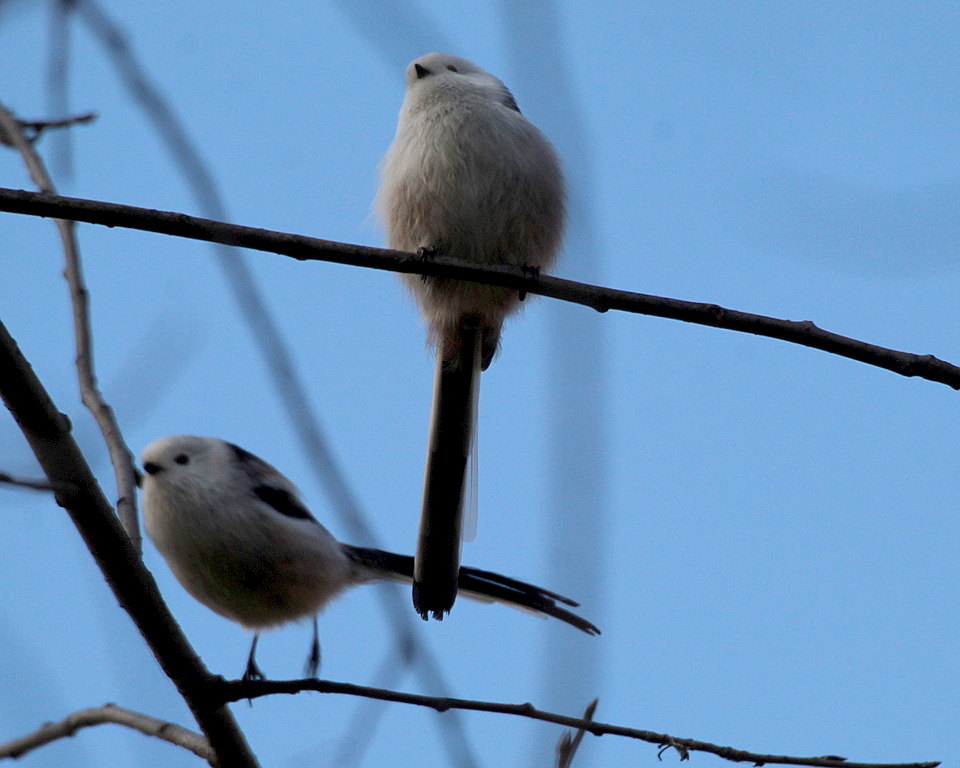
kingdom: Animalia
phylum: Chordata
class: Aves
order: Passeriformes
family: Aegithalidae
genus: Aegithalos
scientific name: Aegithalos caudatus
